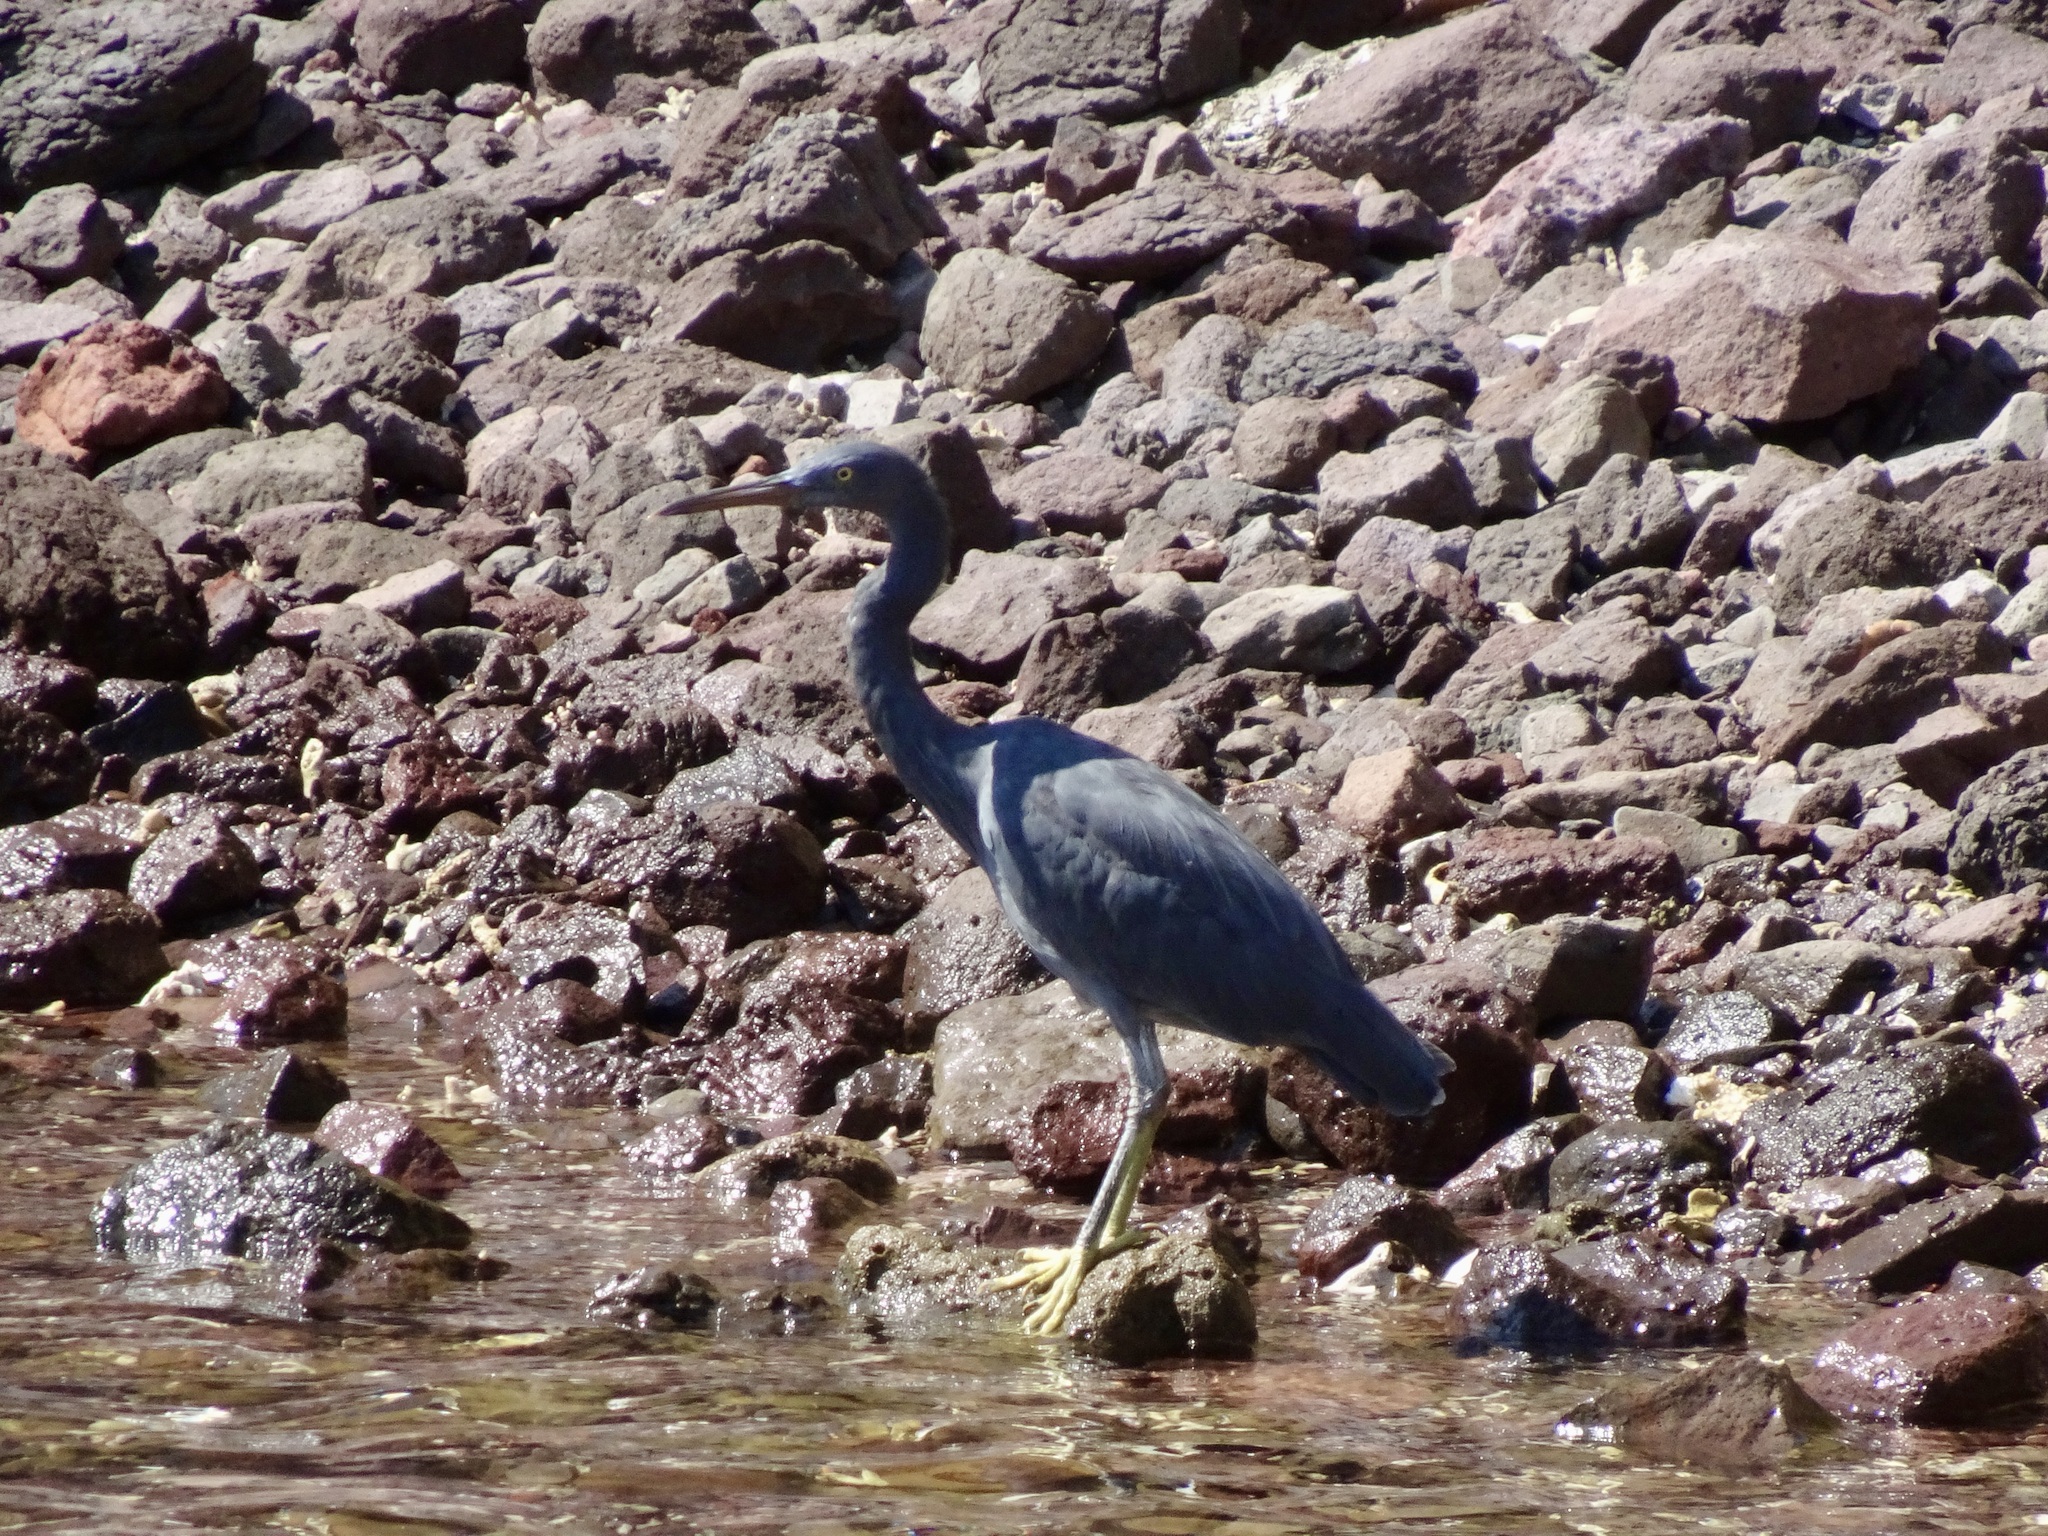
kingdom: Animalia
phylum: Chordata
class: Aves
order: Pelecaniformes
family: Ardeidae
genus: Egretta
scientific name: Egretta sacra
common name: Pacific reef heron
